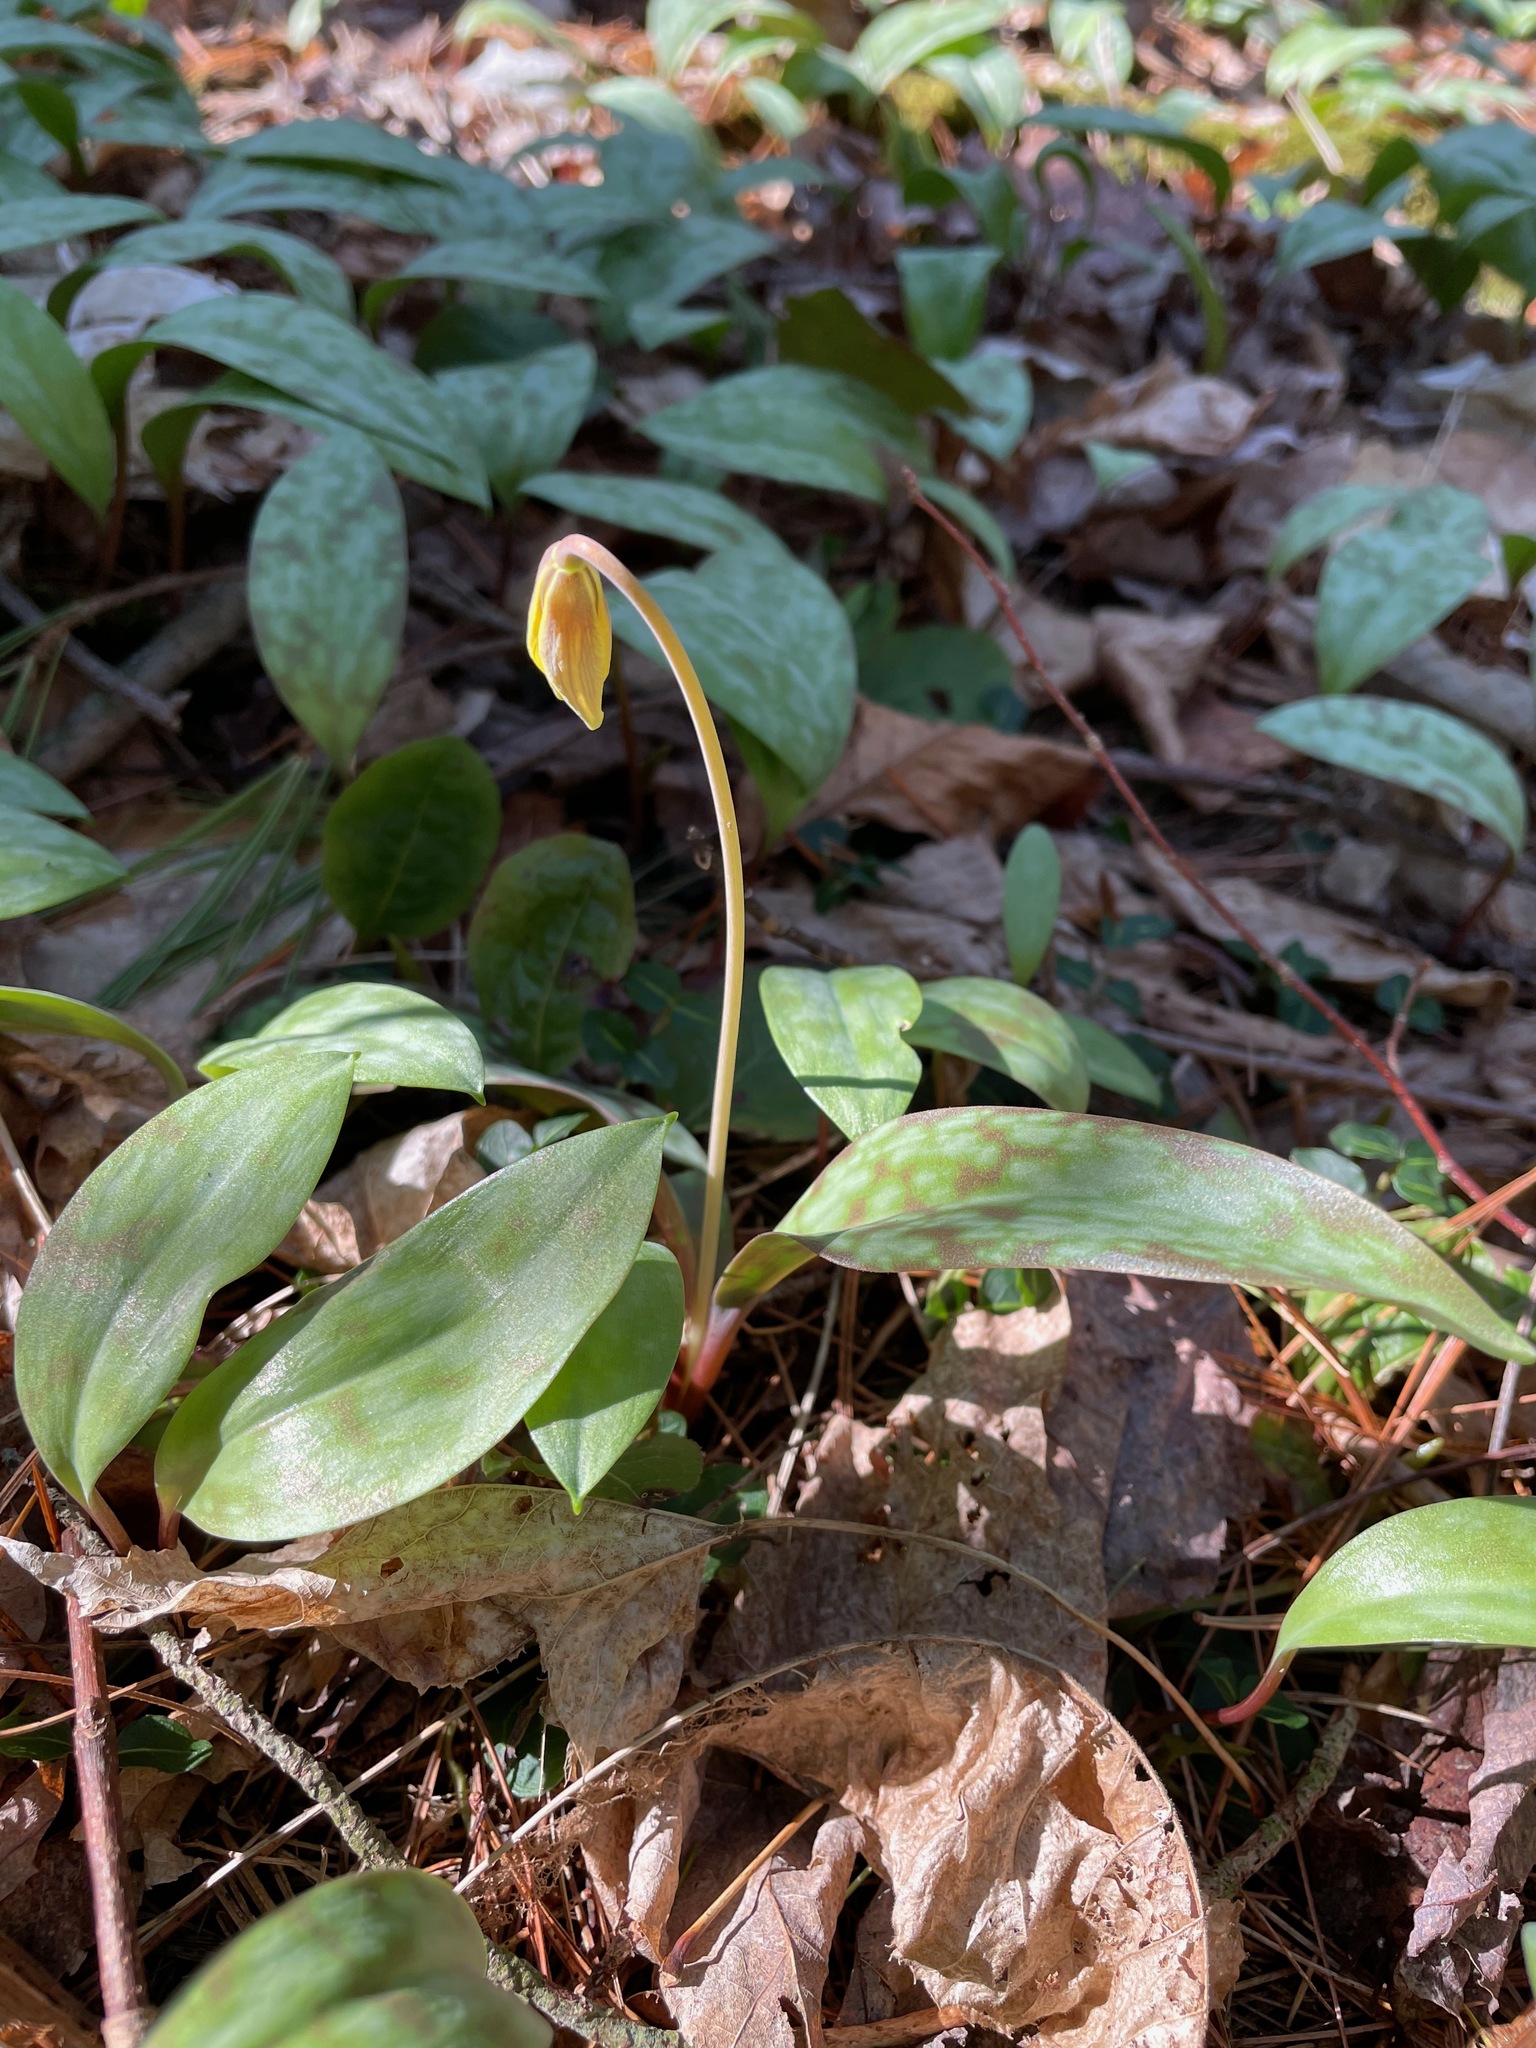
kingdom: Plantae
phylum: Tracheophyta
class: Liliopsida
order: Liliales
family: Liliaceae
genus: Erythronium
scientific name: Erythronium americanum
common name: Yellow adder's-tongue
